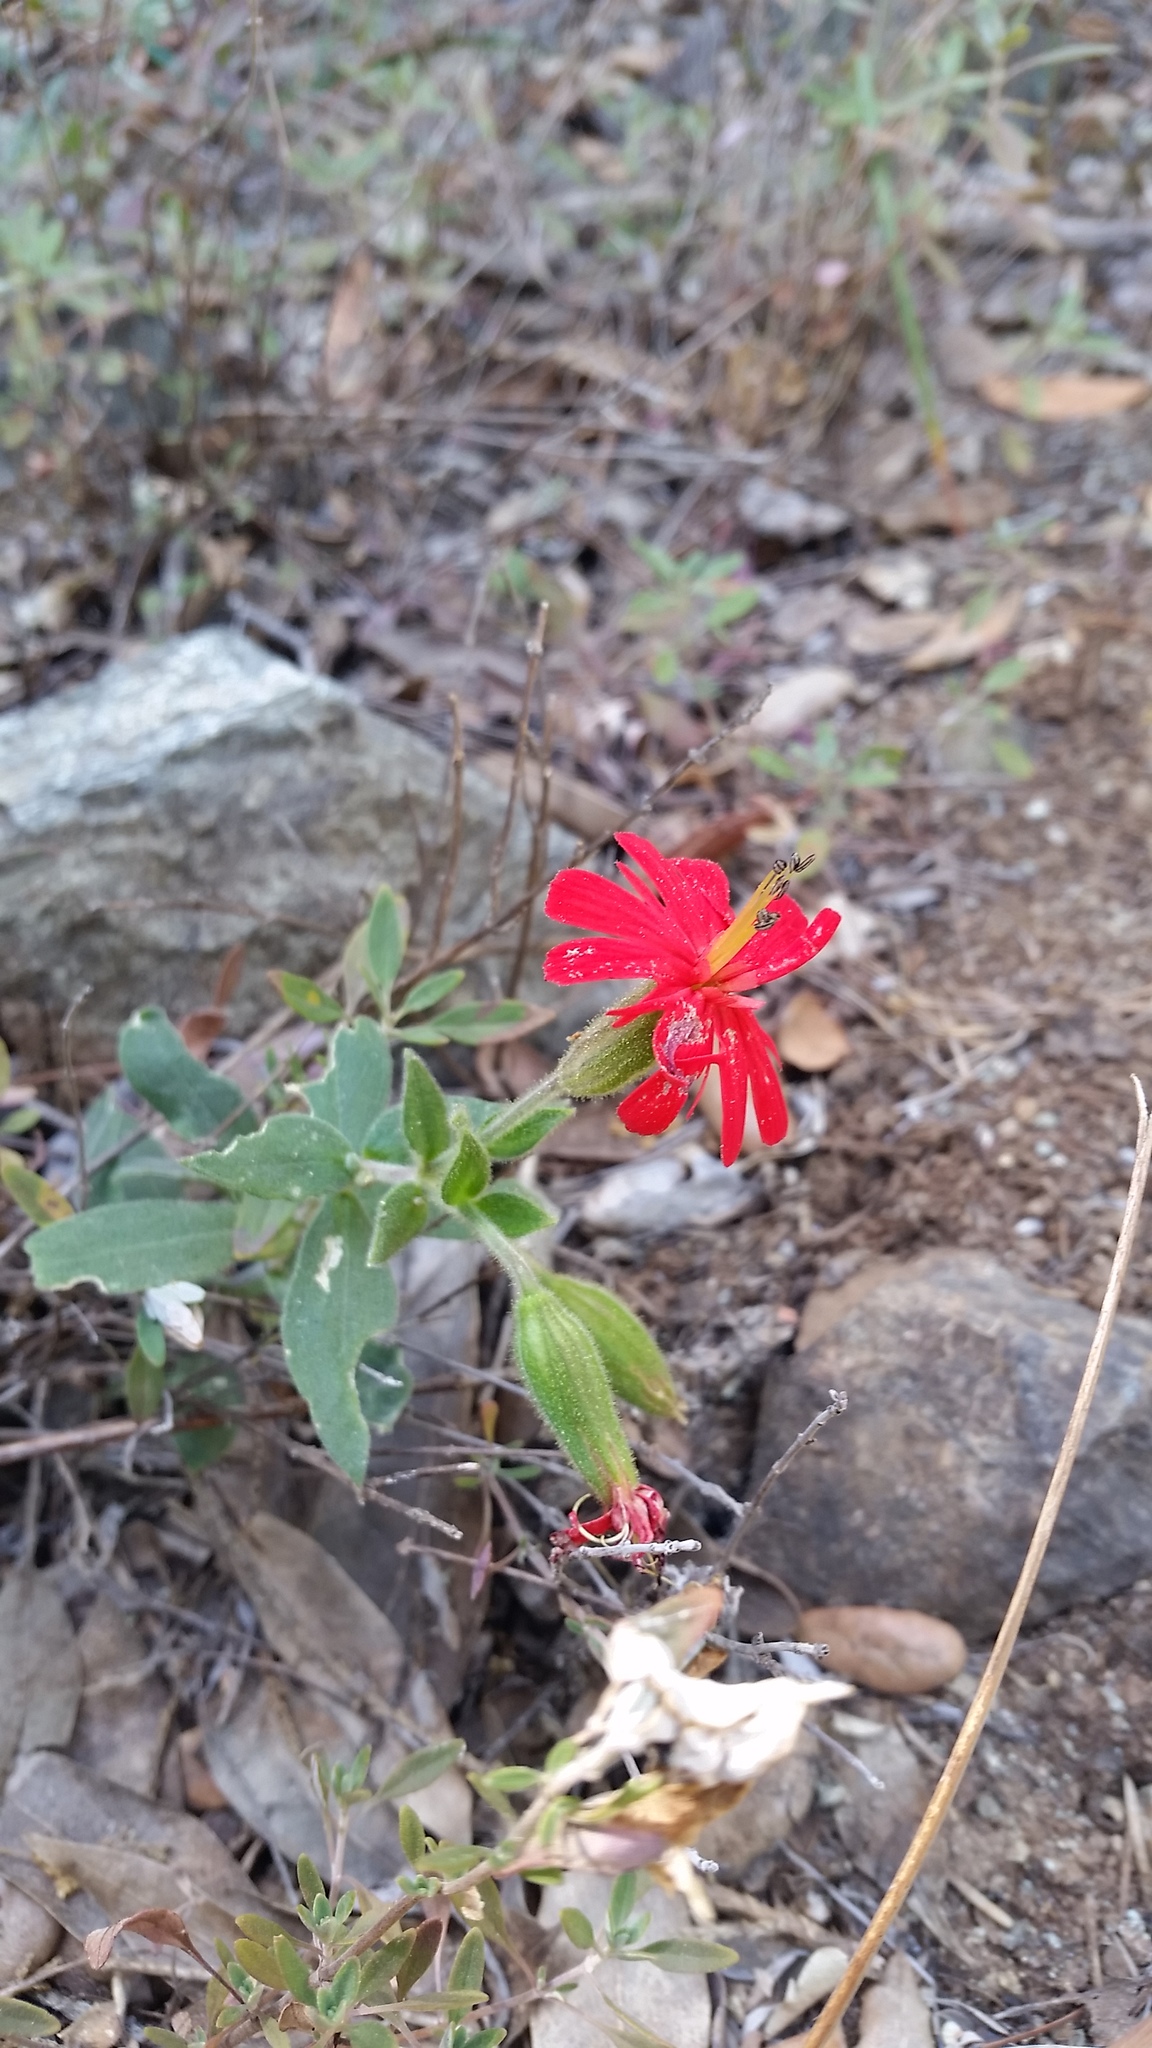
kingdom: Plantae
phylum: Tracheophyta
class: Magnoliopsida
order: Caryophyllales
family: Caryophyllaceae
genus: Silene
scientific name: Silene laciniata
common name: Indian-pink
